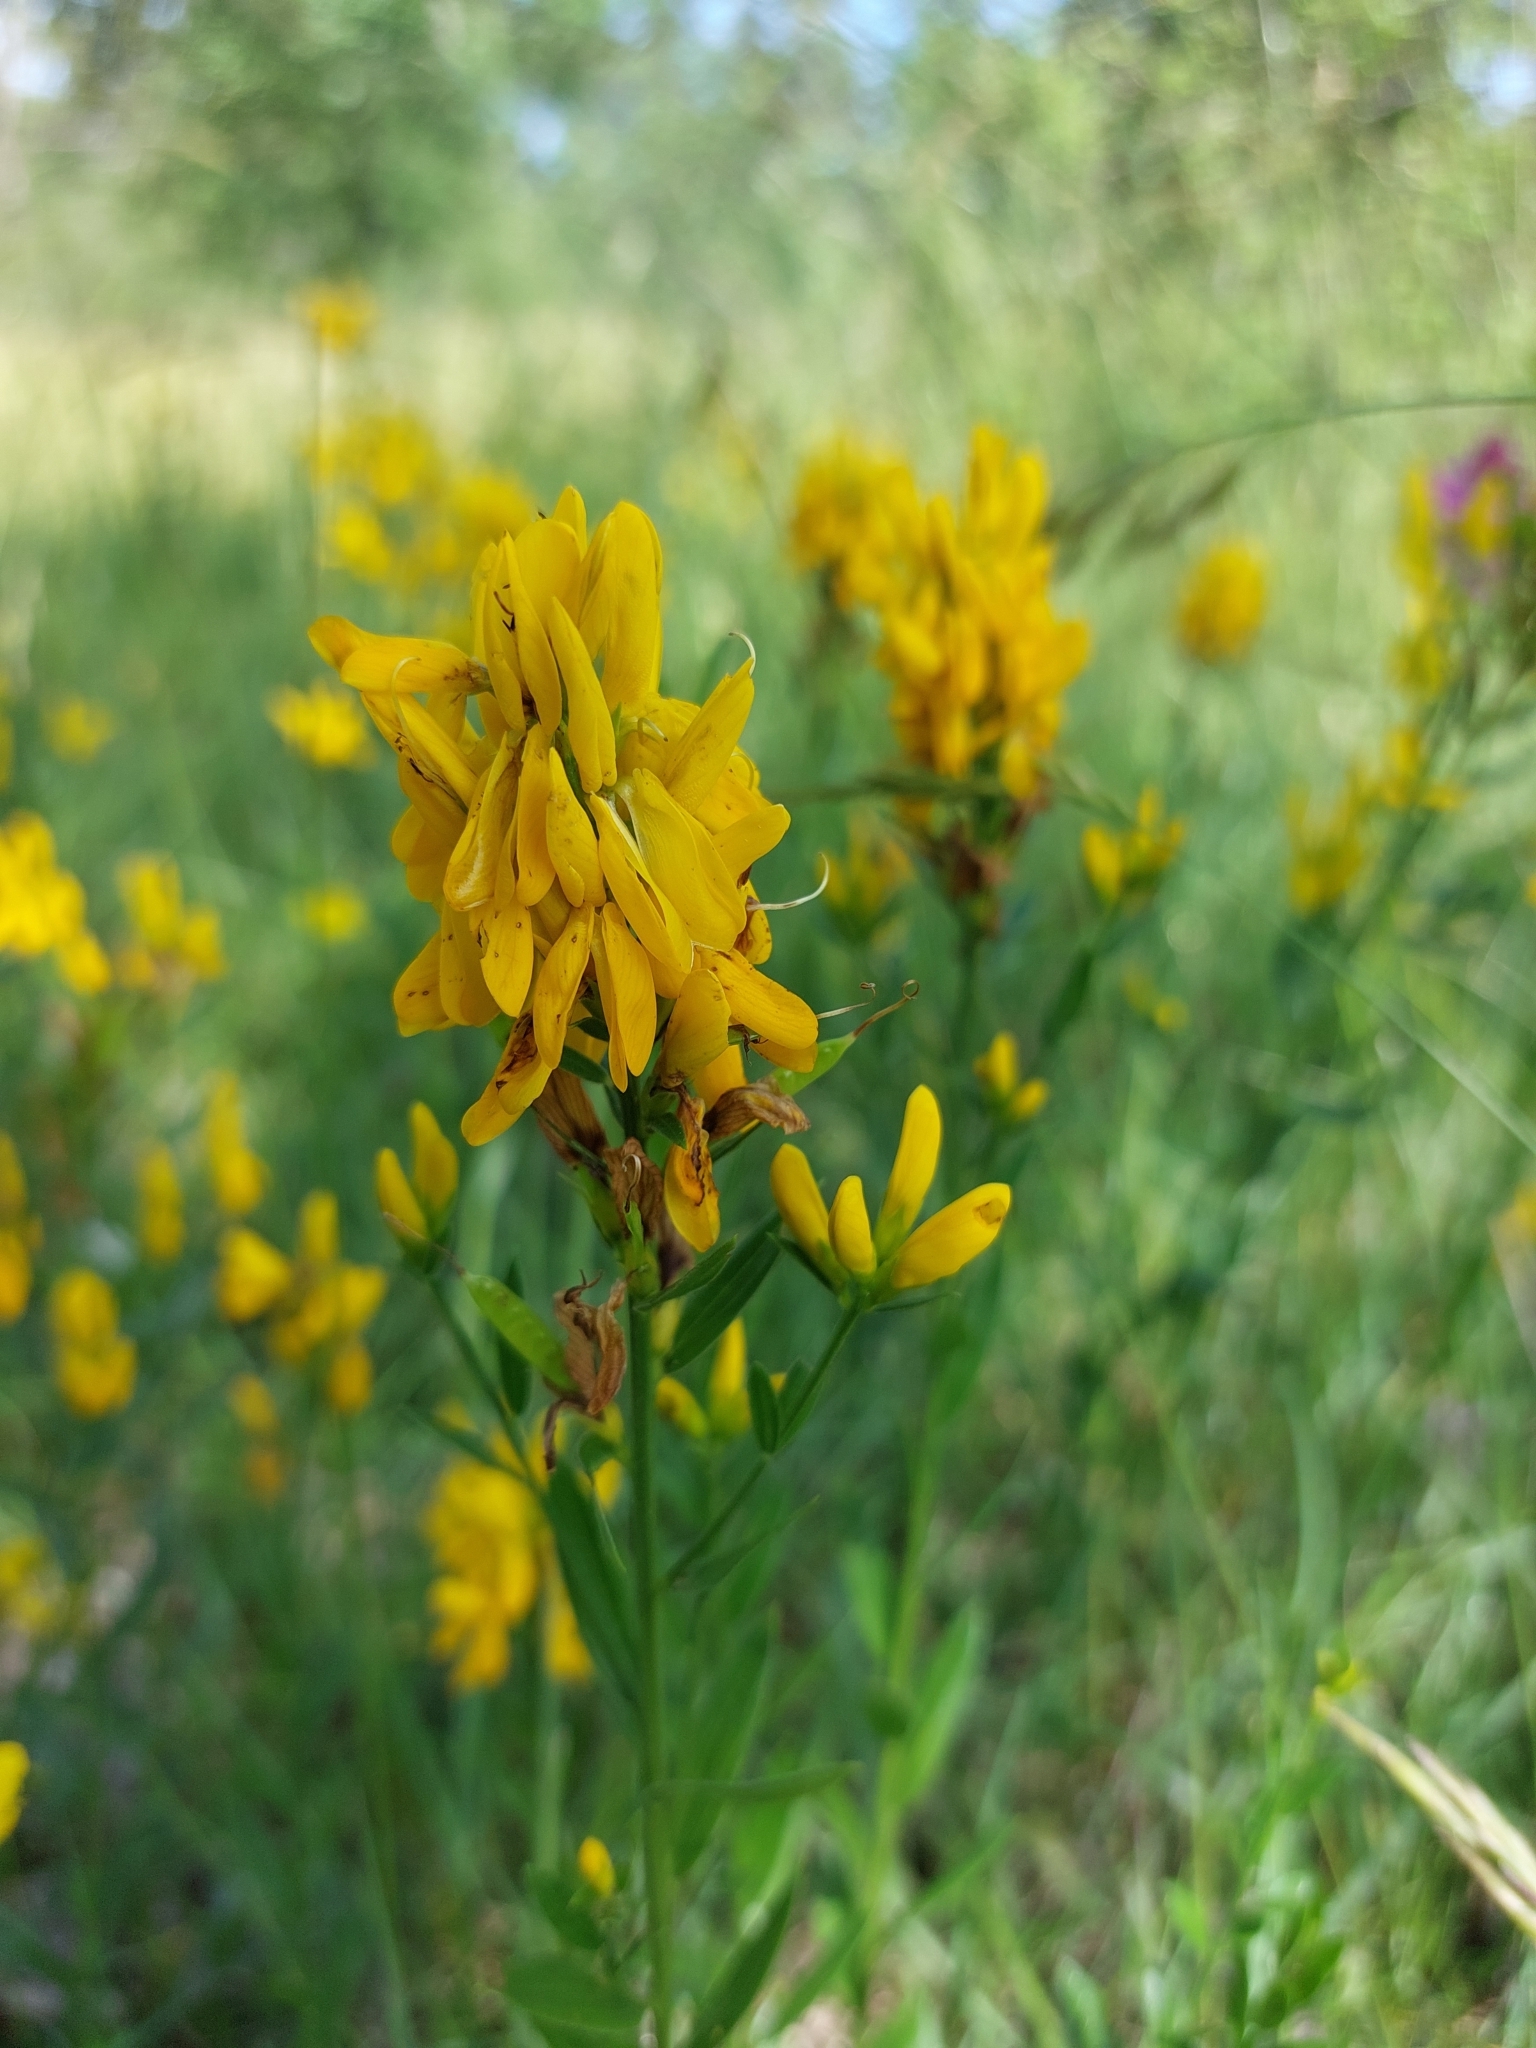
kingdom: Plantae
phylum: Tracheophyta
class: Magnoliopsida
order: Fabales
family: Fabaceae
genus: Genista
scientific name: Genista tinctoria
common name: Dyer's greenweed
